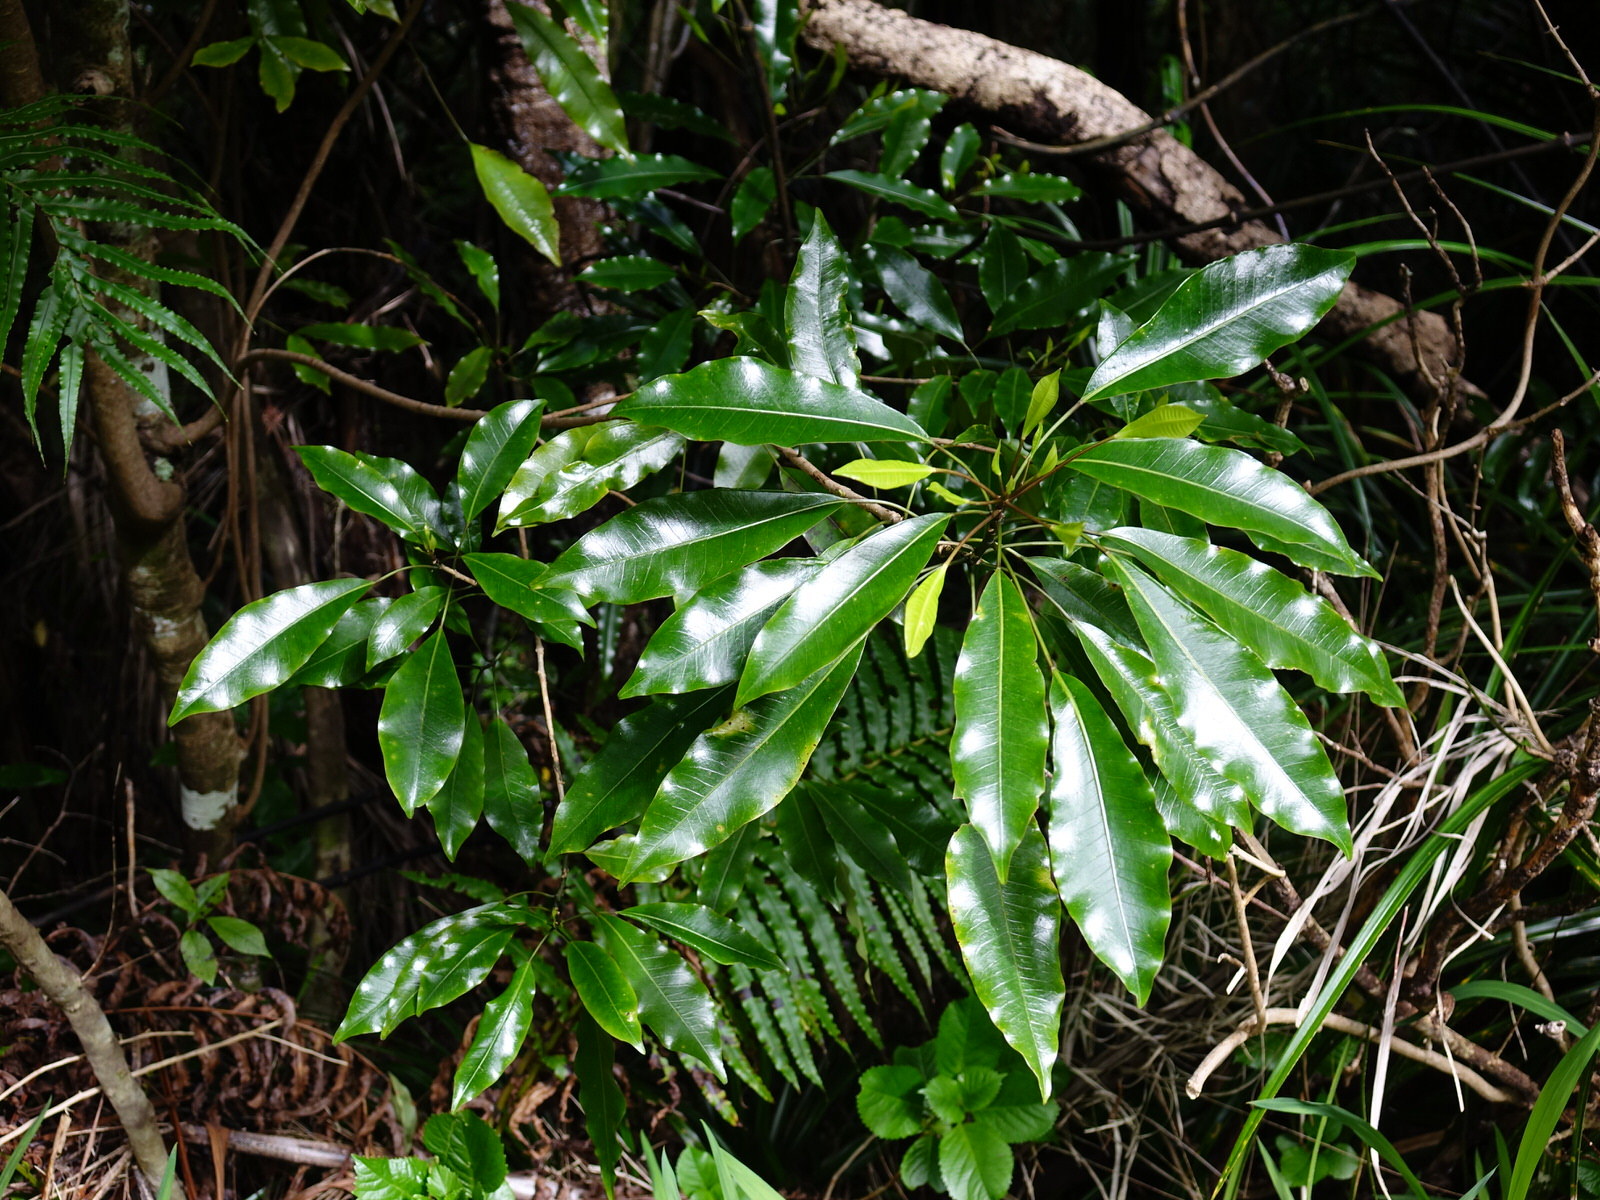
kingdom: Plantae
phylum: Tracheophyta
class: Magnoliopsida
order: Apiales
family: Araliaceae
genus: Raukaua
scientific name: Raukaua edgerleyi
